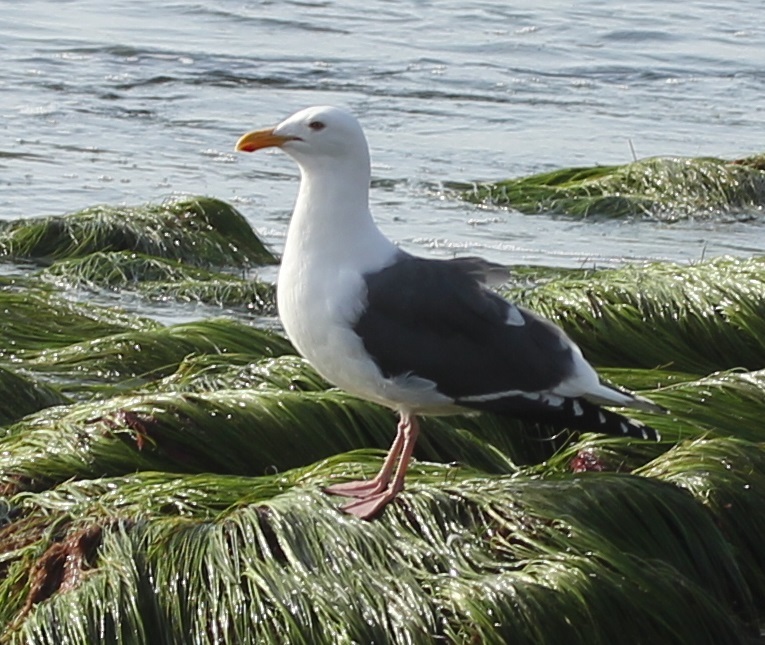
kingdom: Animalia
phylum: Chordata
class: Aves
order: Charadriiformes
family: Laridae
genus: Larus
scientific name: Larus occidentalis
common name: Western gull
